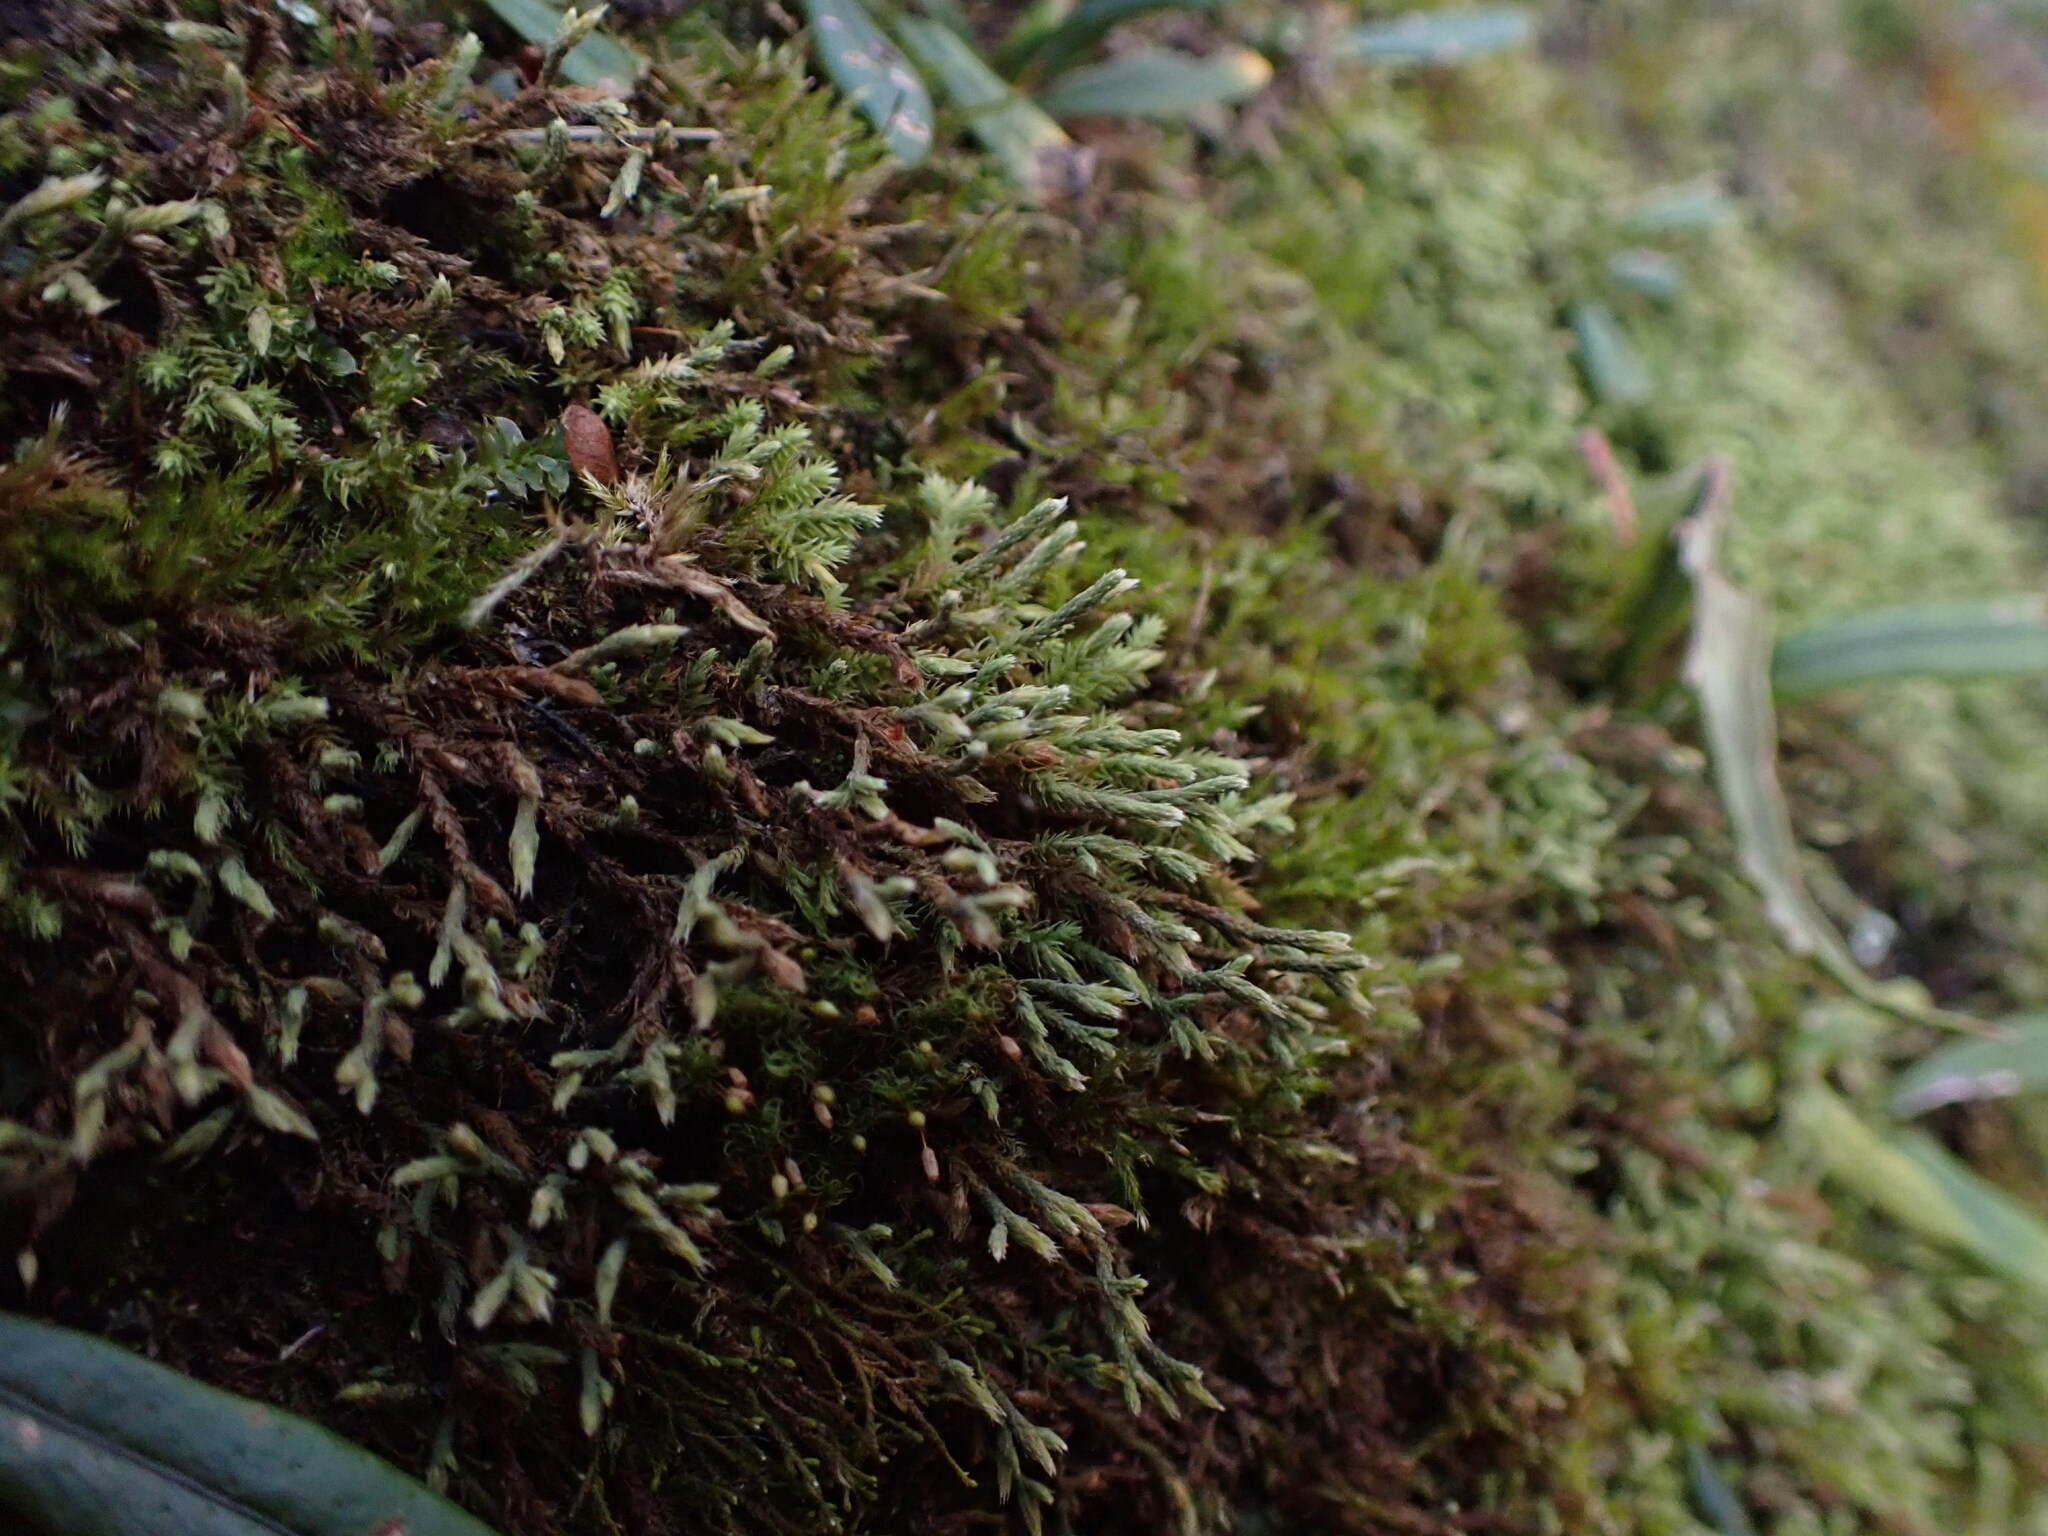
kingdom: Plantae
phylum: Bryophyta
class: Bryopsida
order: Hedwigiales
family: Hedwigiaceae
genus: Hedwigia
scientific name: Hedwigia ciliata
